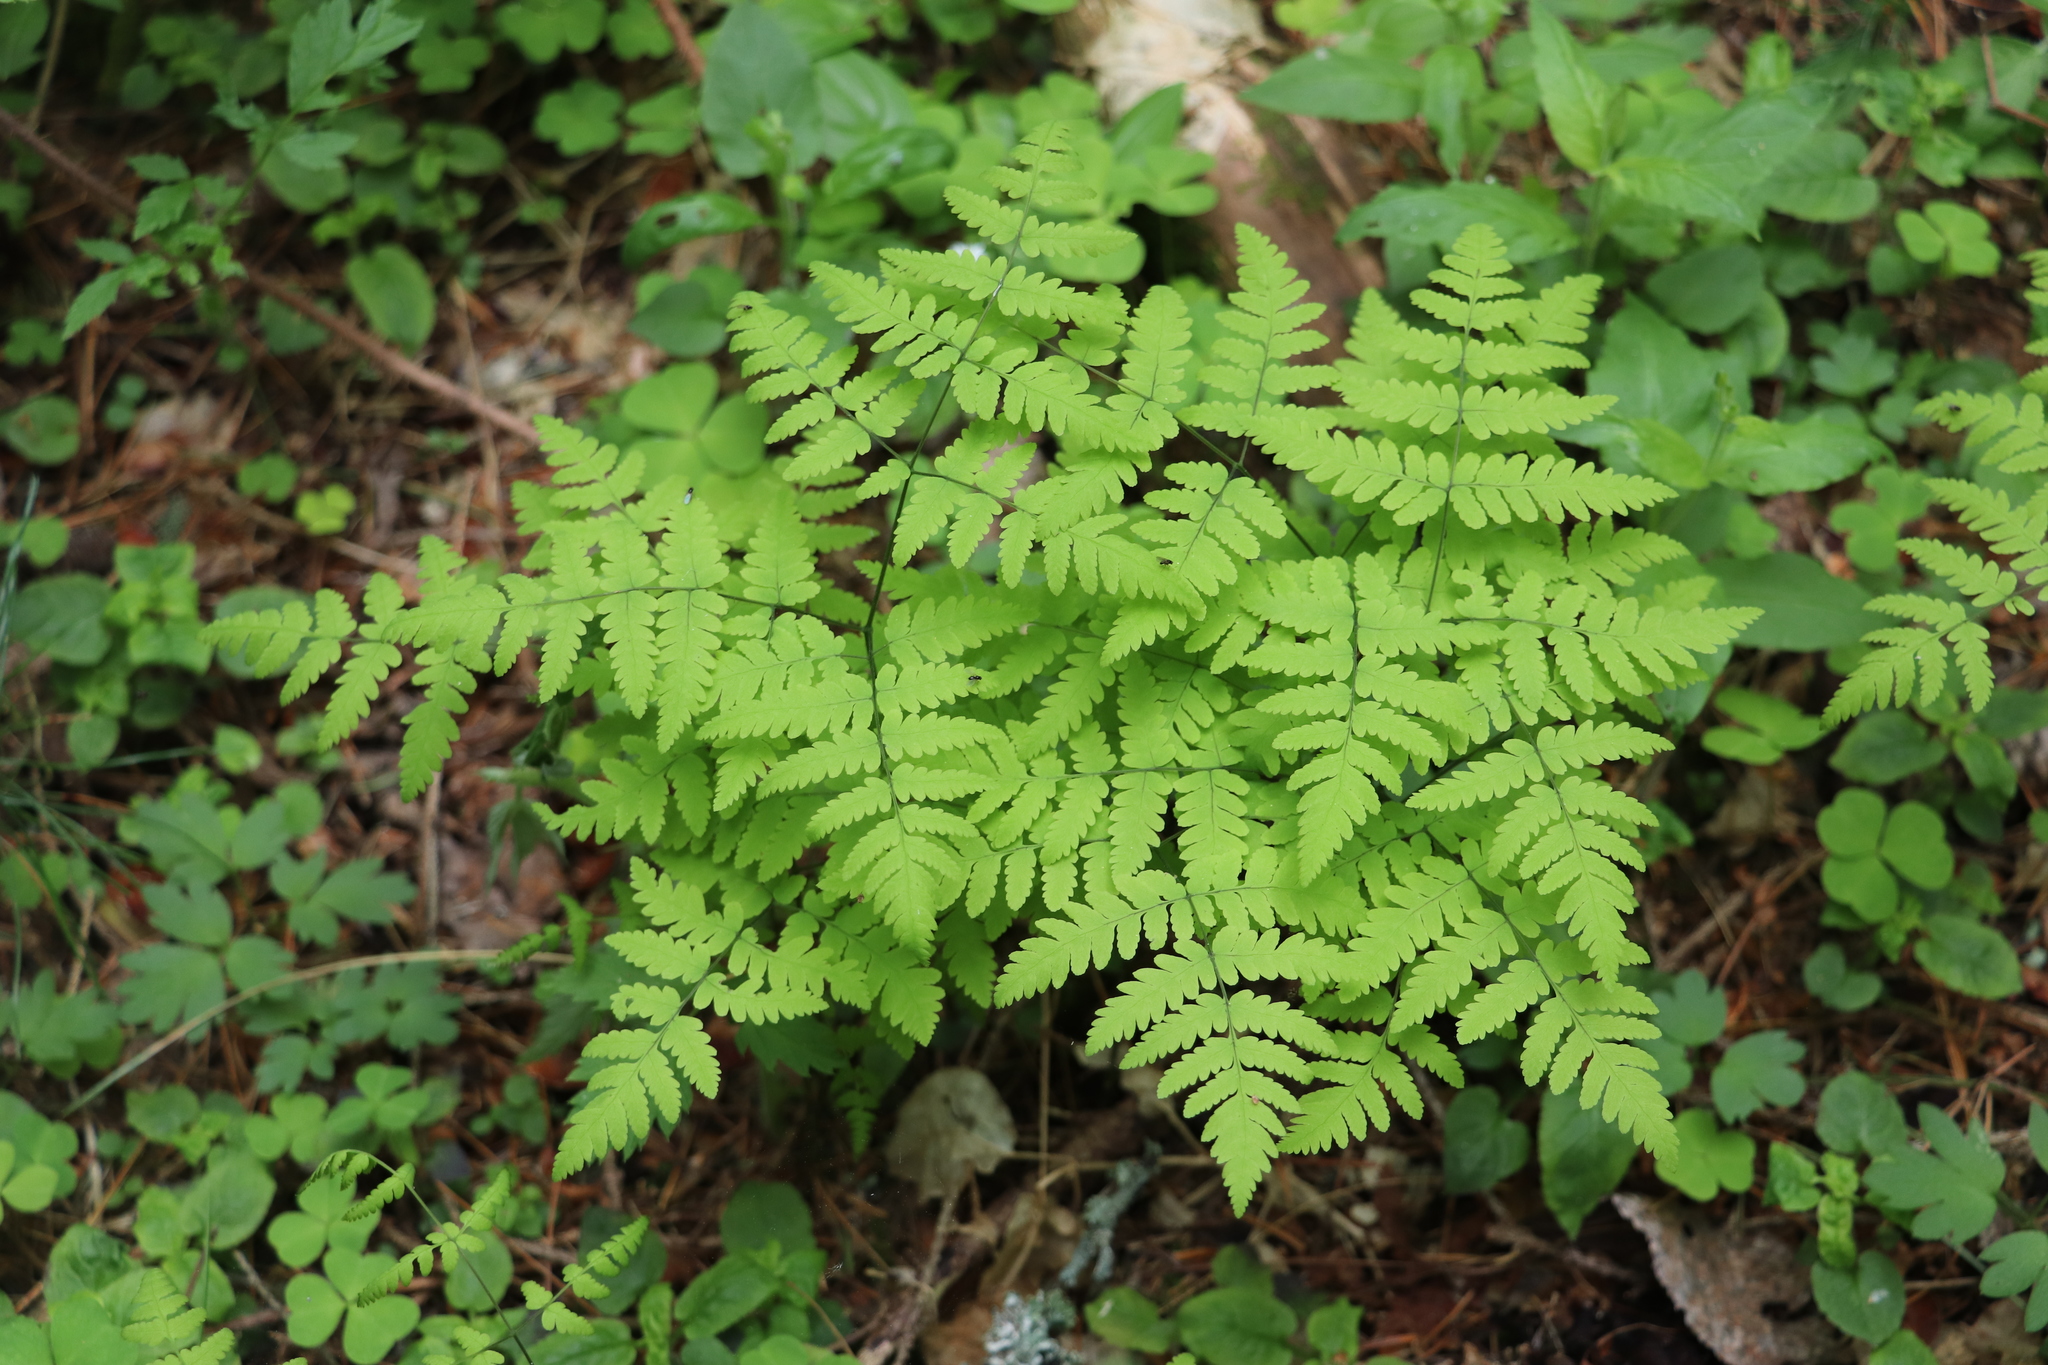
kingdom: Plantae
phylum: Tracheophyta
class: Polypodiopsida
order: Polypodiales
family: Cystopteridaceae
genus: Gymnocarpium
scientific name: Gymnocarpium dryopteris
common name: Oak fern
